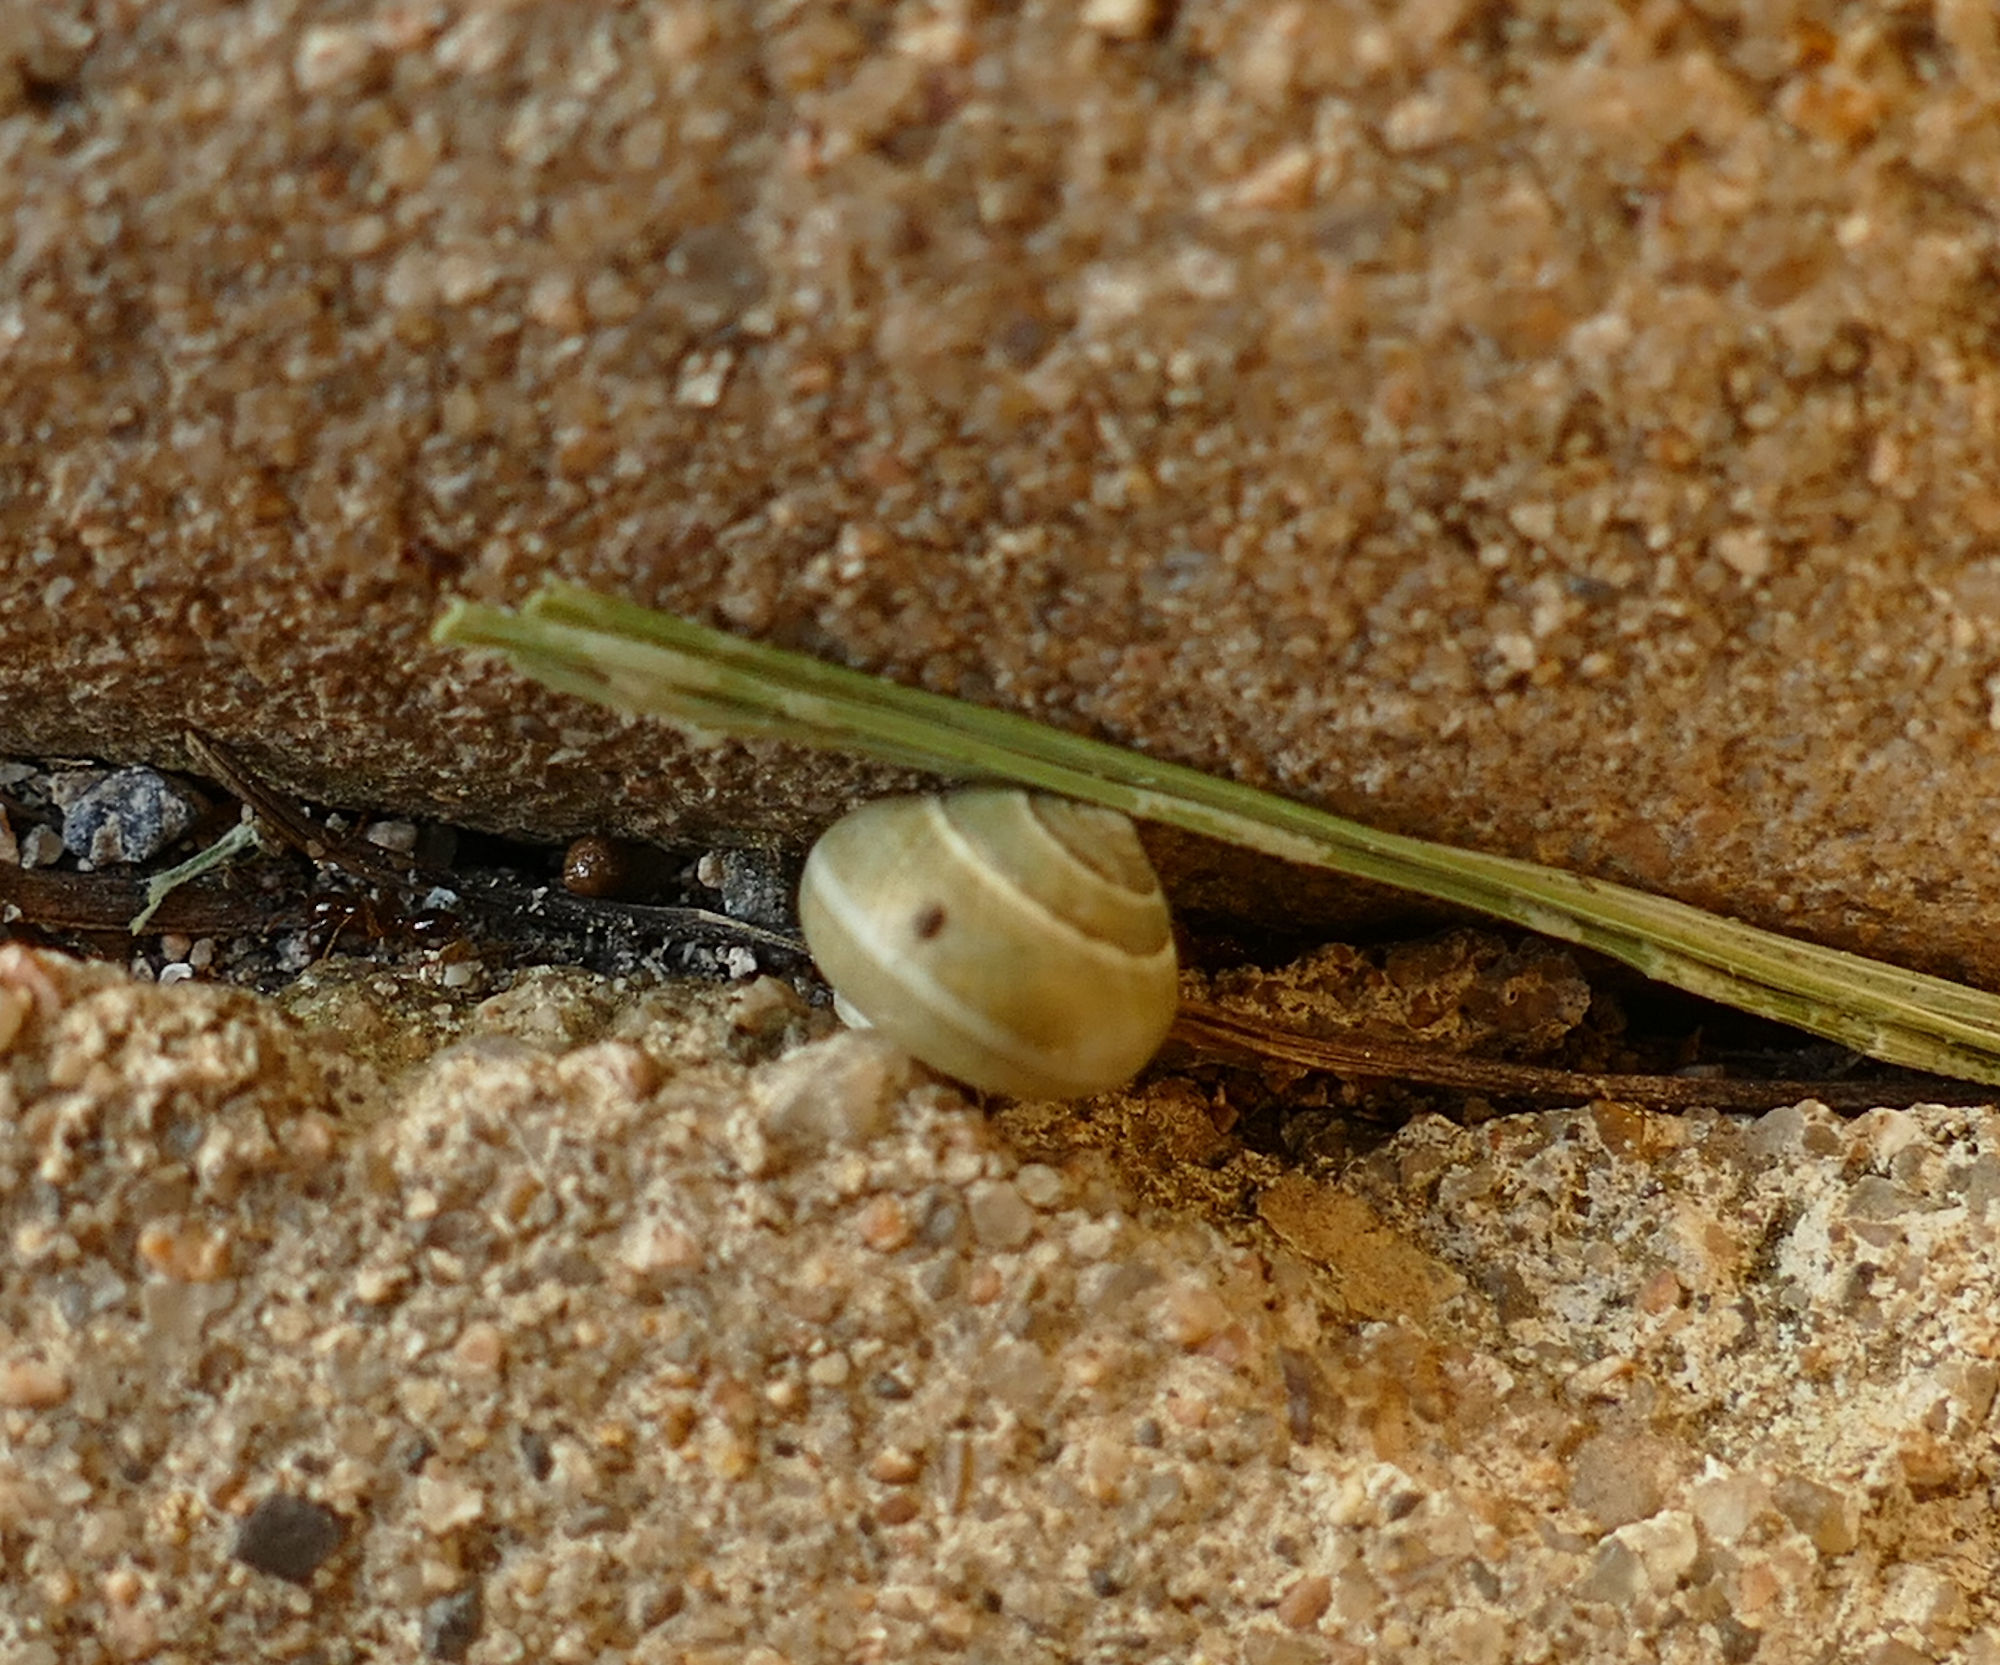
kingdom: Animalia
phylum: Mollusca
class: Gastropoda
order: Cycloneritida
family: Helicinidae
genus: Helicina
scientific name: Helicina orbiculata
